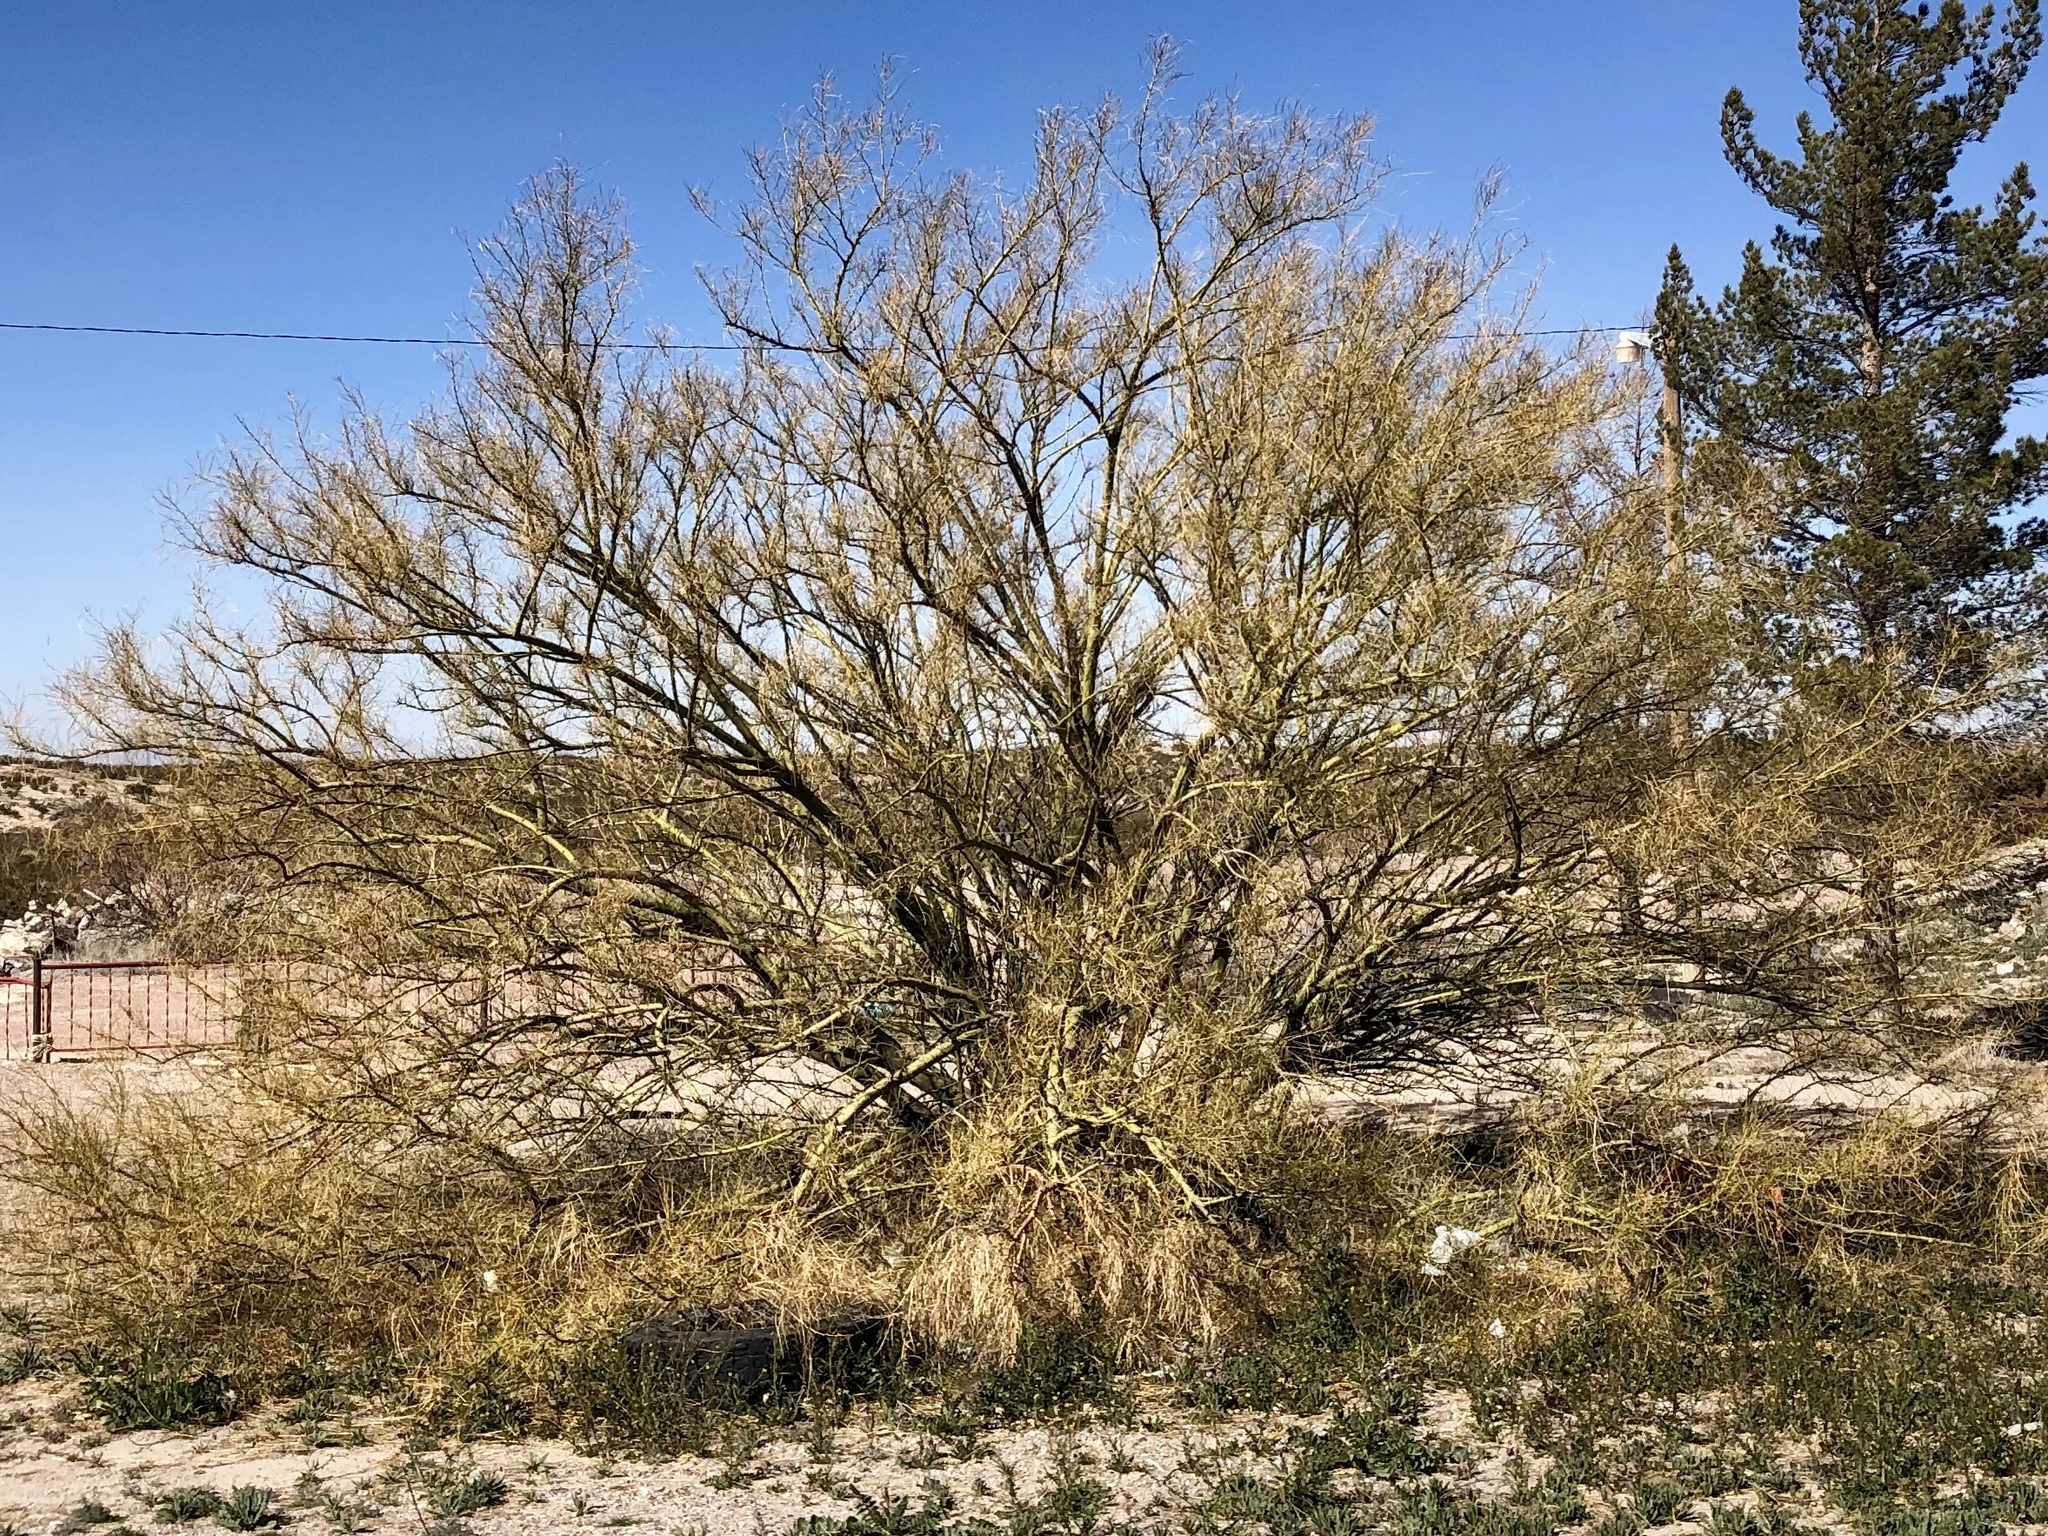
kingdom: Plantae
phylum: Tracheophyta
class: Magnoliopsida
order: Fabales
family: Fabaceae
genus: Parkinsonia
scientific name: Parkinsonia aculeata
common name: Jerusalem thorn
